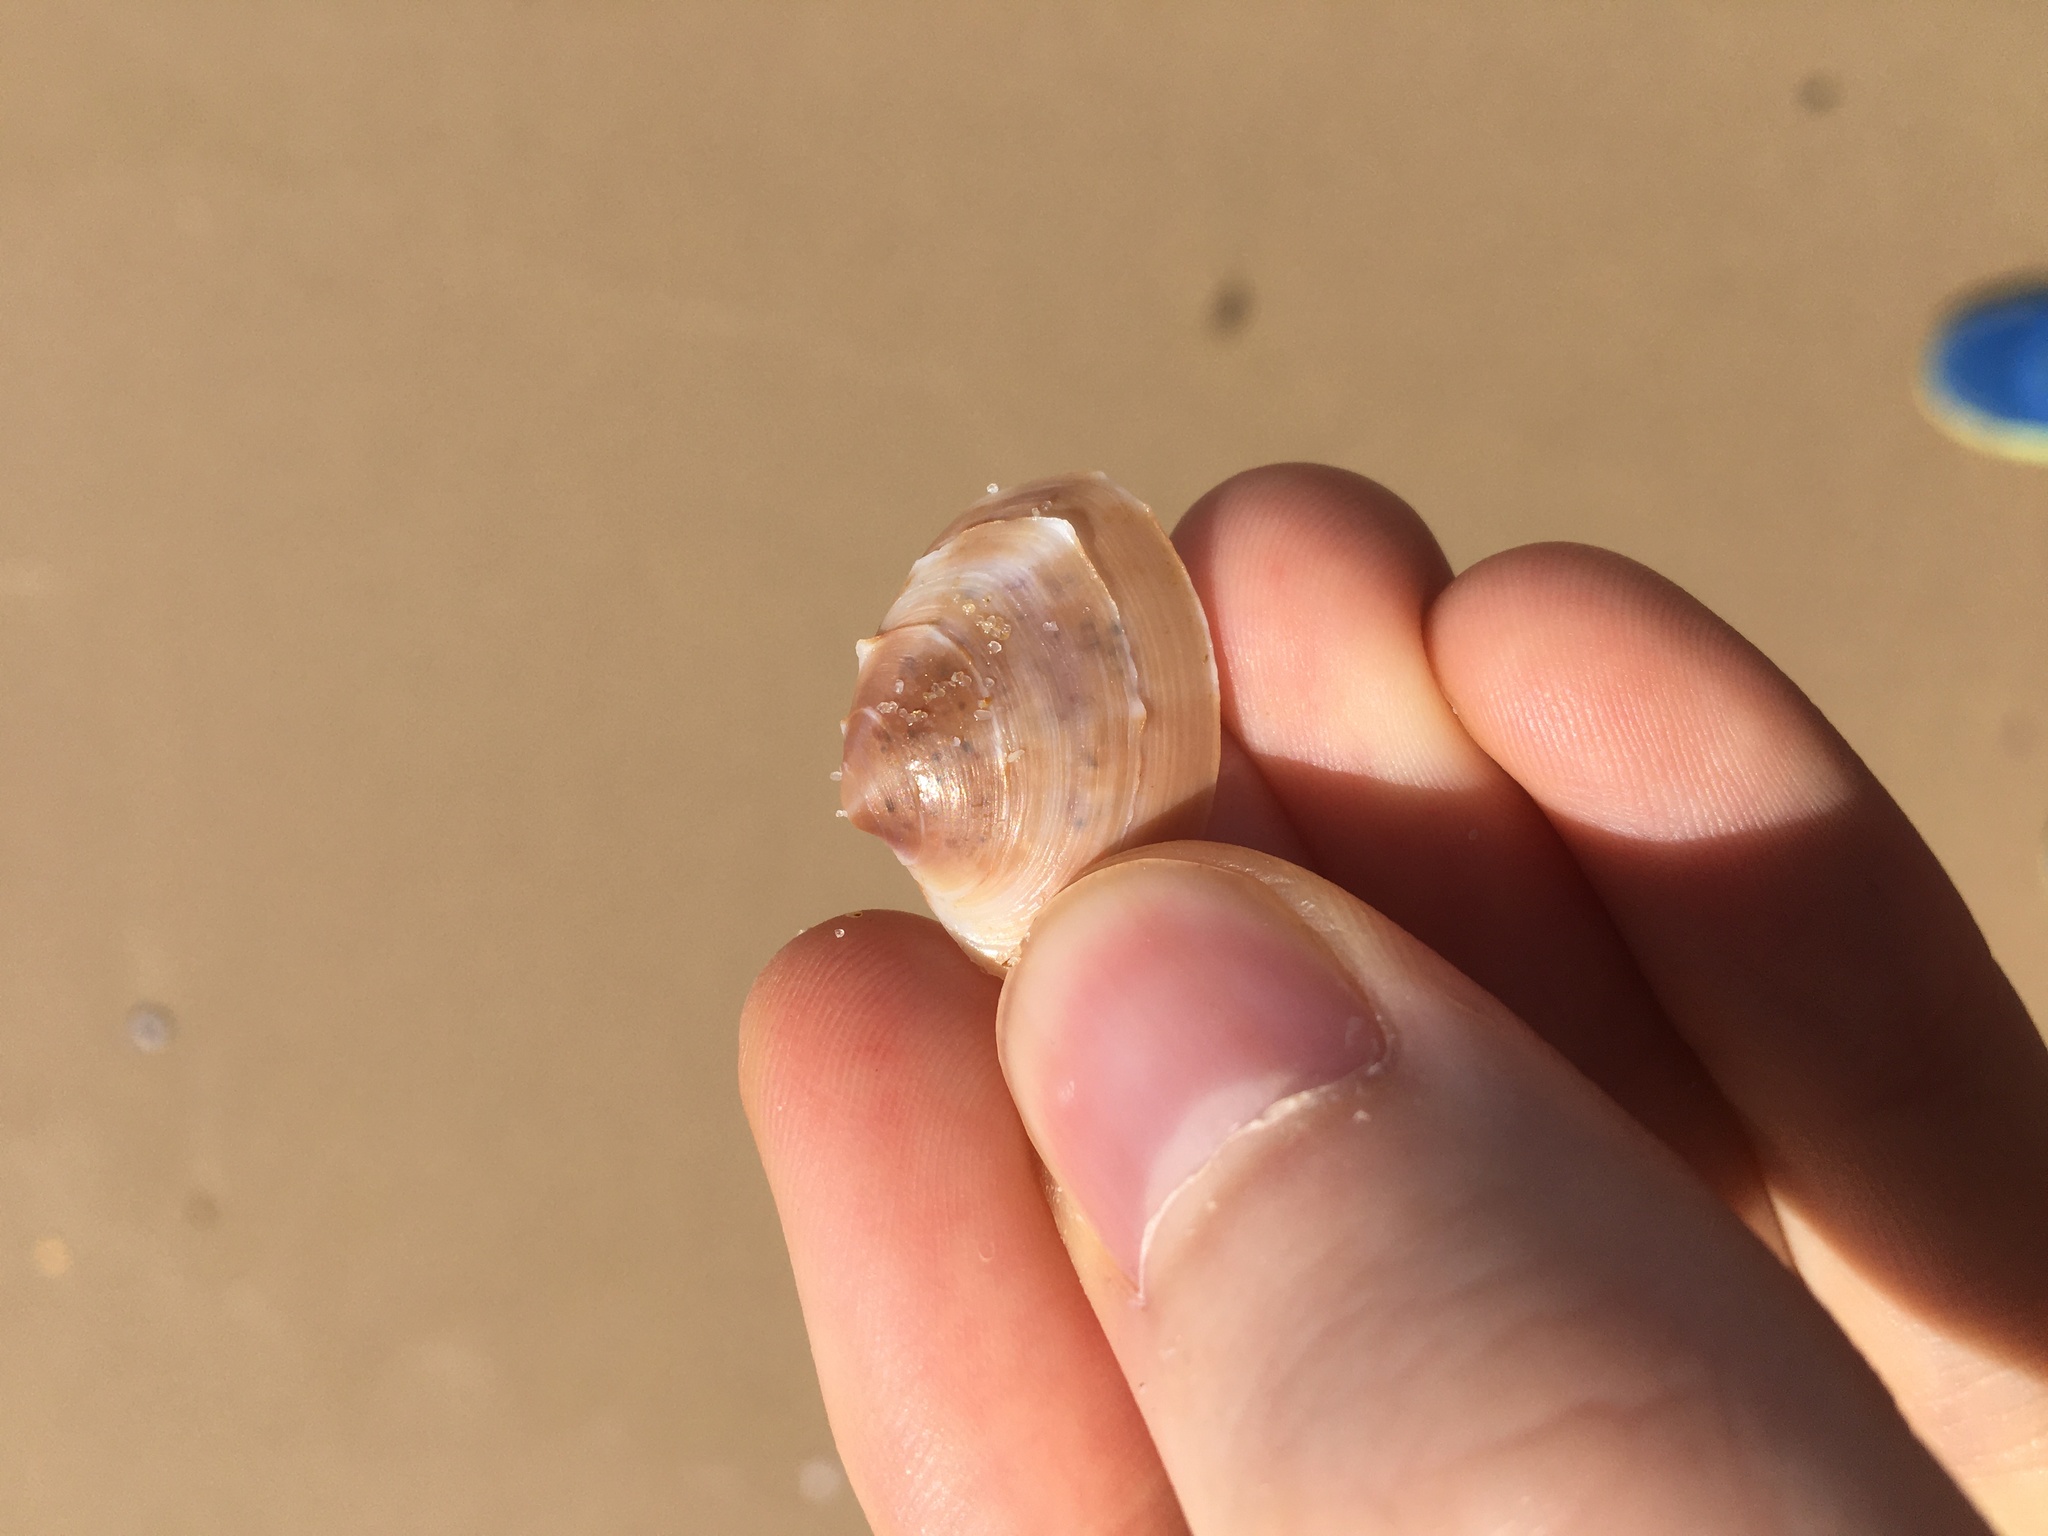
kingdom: Animalia
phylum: Mollusca
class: Bivalvia
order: Venerida
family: Veneridae
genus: Bassina
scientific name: Bassina jacksonii
